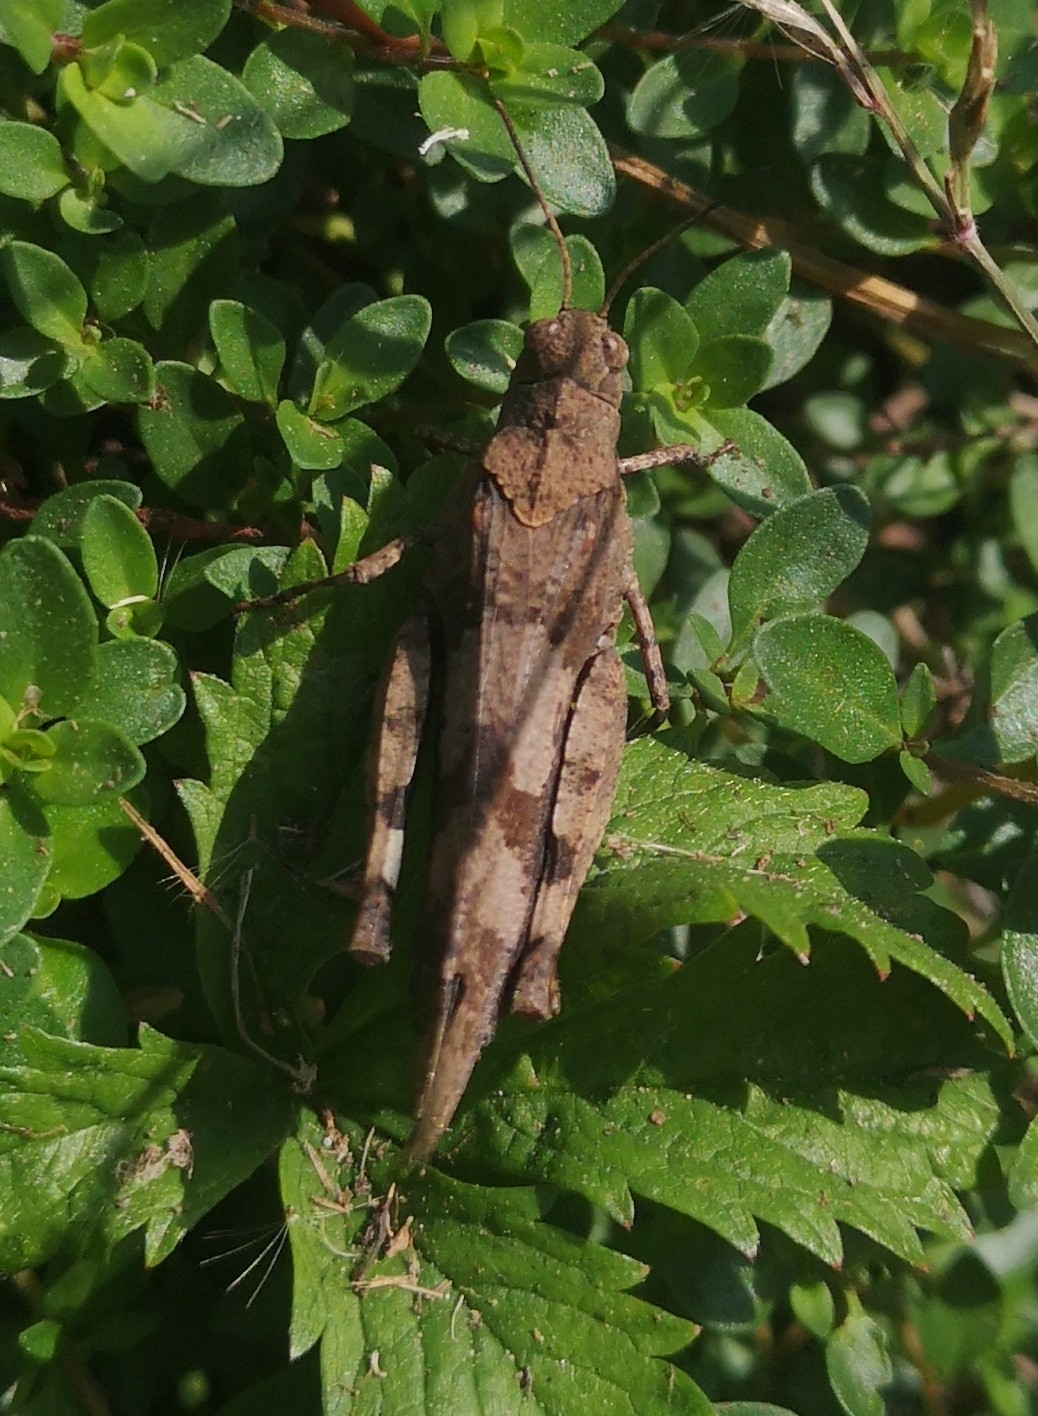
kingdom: Animalia
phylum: Arthropoda
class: Insecta
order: Orthoptera
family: Acrididae
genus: Oedipoda
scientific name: Oedipoda caerulescens
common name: Blue-winged grasshopper
